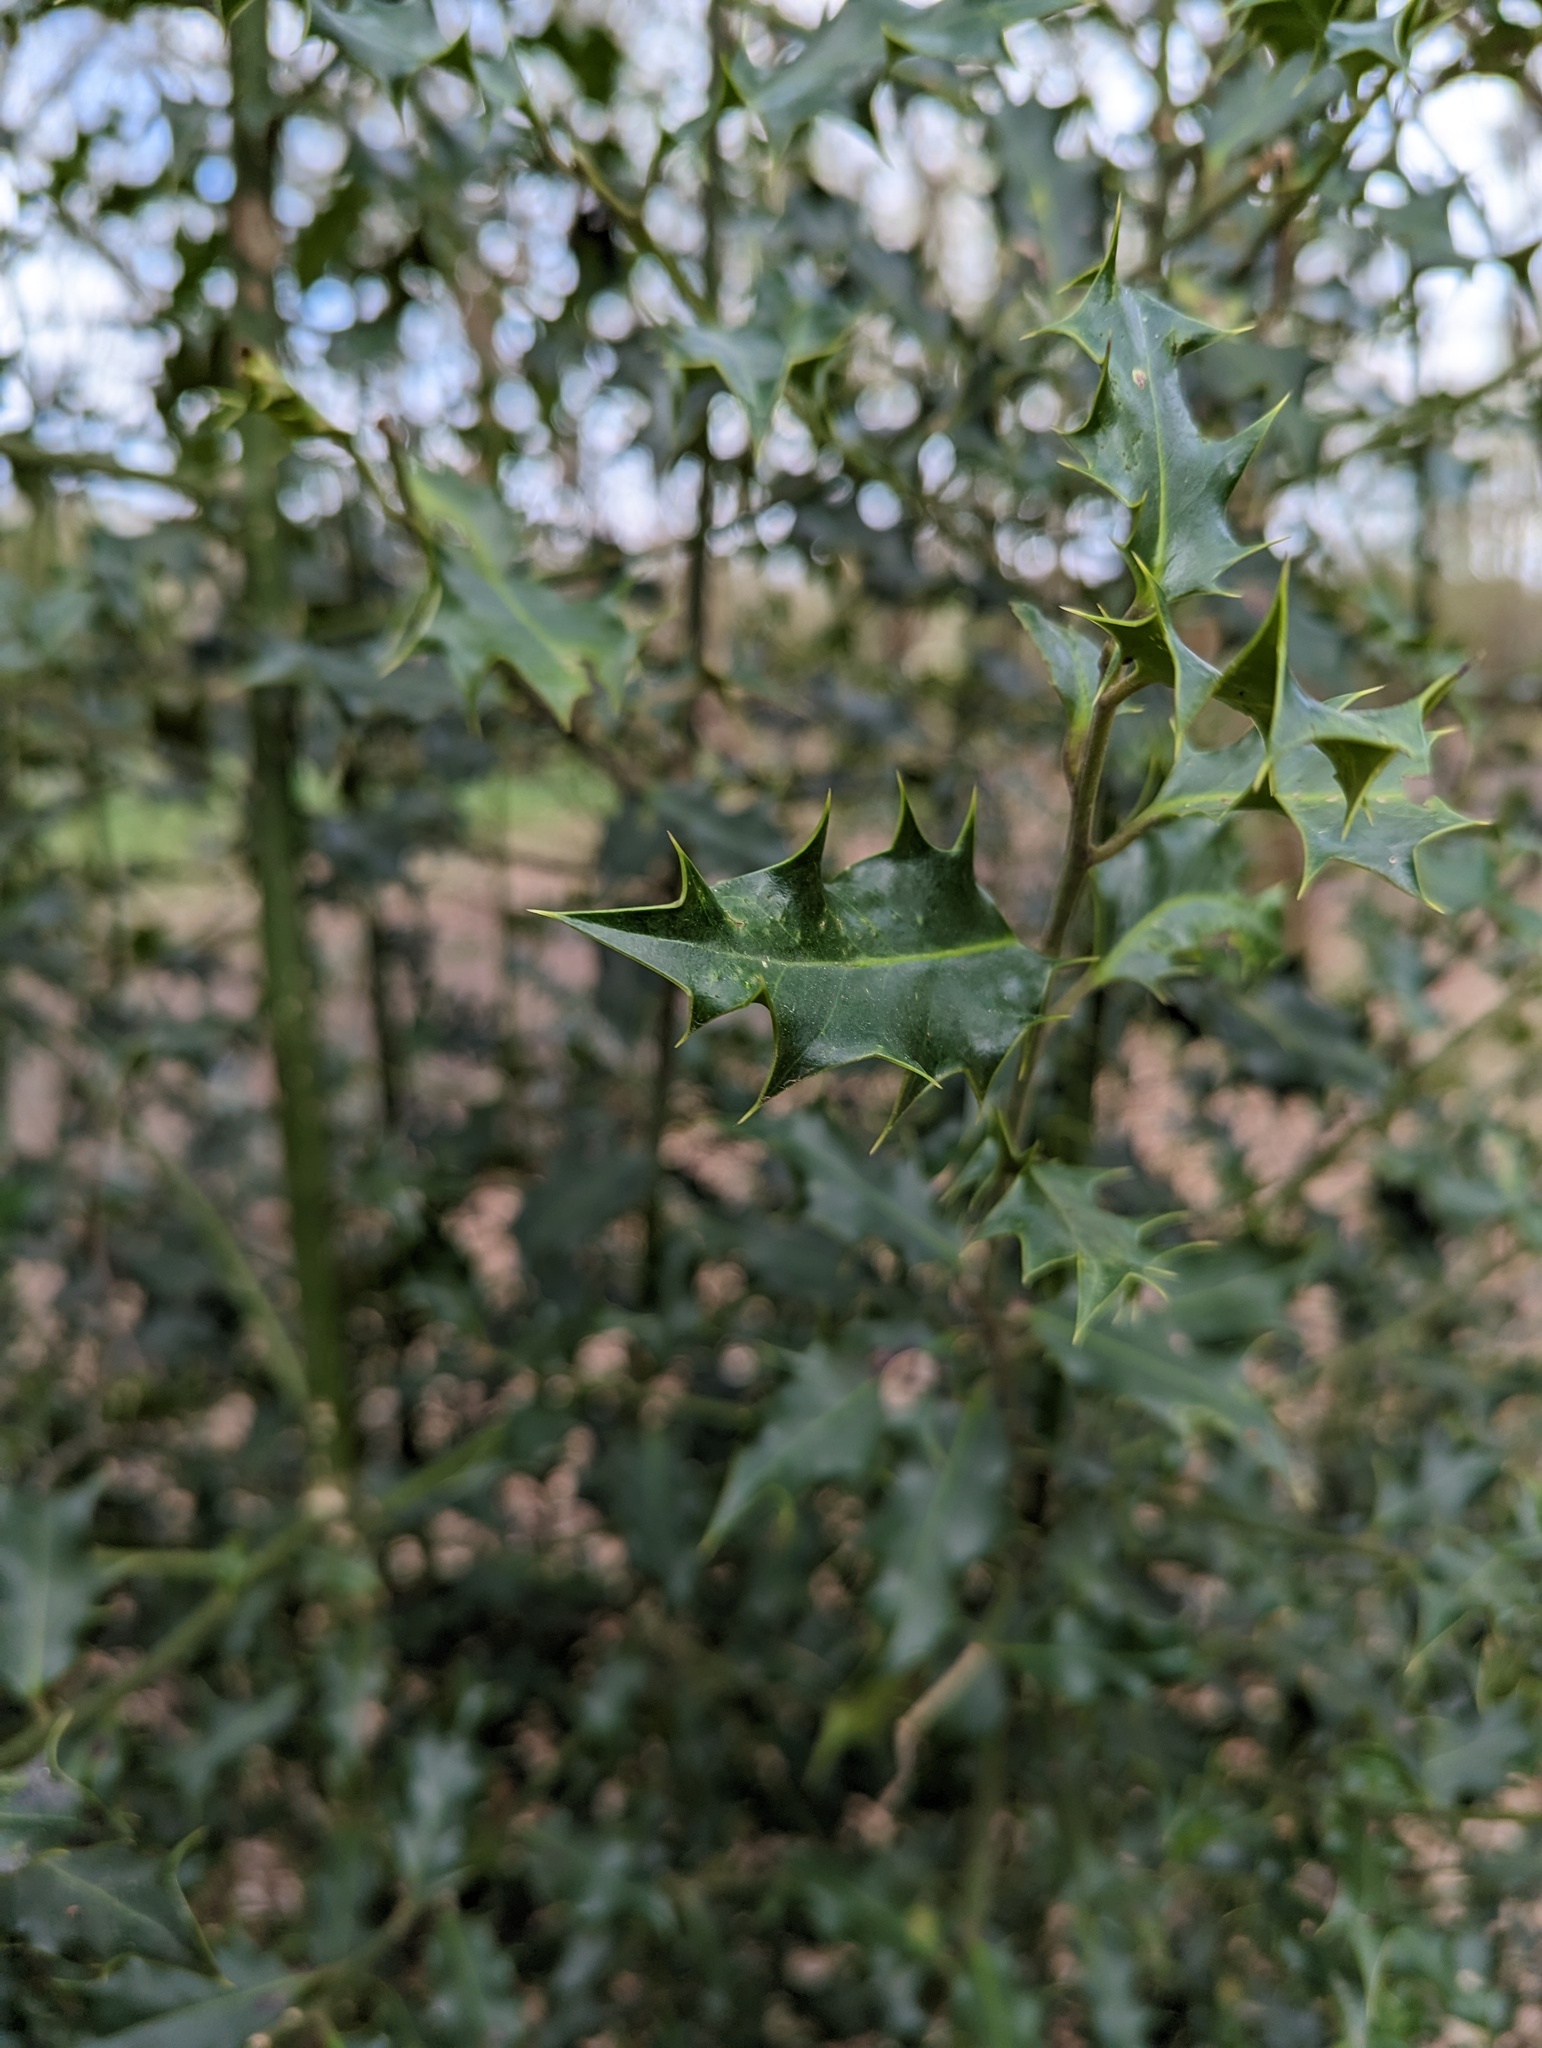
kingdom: Plantae
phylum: Tracheophyta
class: Magnoliopsida
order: Aquifoliales
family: Aquifoliaceae
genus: Ilex
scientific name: Ilex aquifolium
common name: English holly
